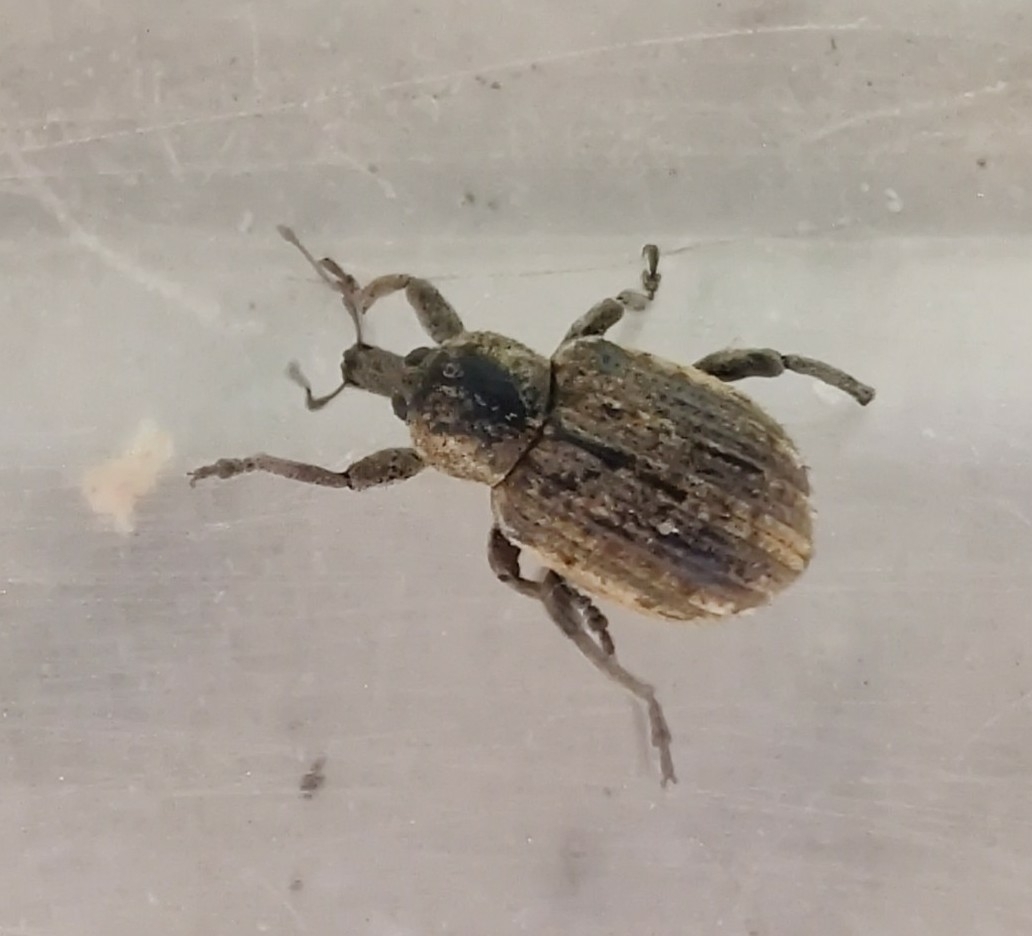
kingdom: Animalia
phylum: Arthropoda
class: Insecta
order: Coleoptera
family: Curculionidae
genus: Brachypera
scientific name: Brachypera zoilus
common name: Clover leaf weevil
